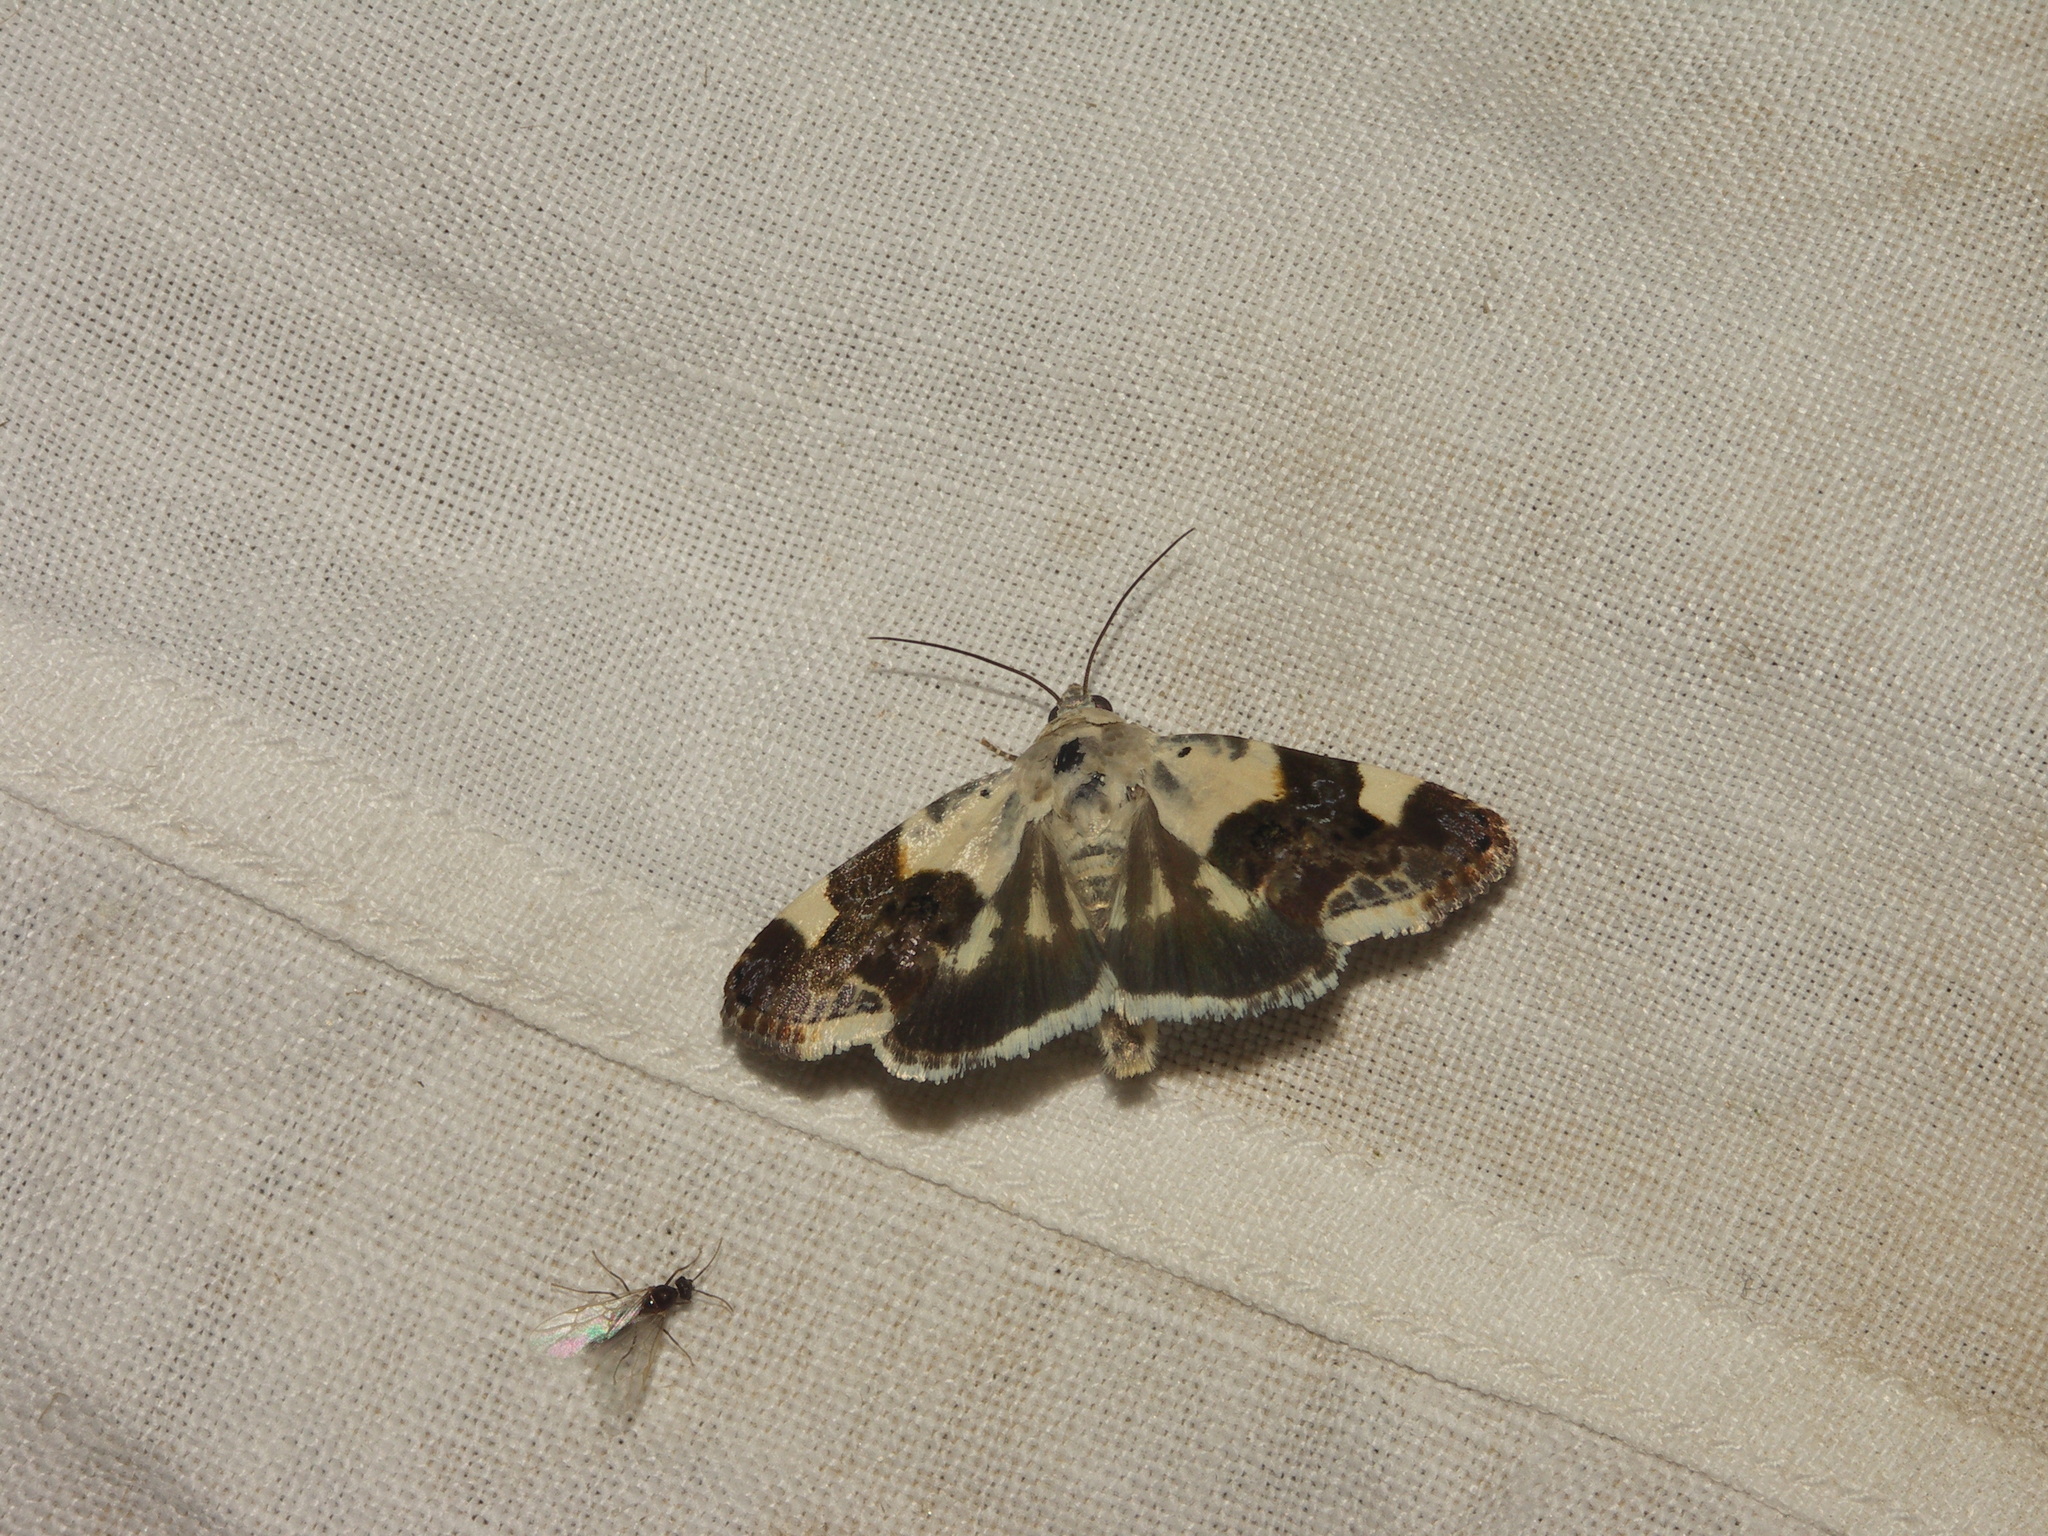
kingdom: Animalia
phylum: Arthropoda
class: Insecta
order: Lepidoptera
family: Noctuidae
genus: Acontia
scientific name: Acontia lucida
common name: Pale shoulder
